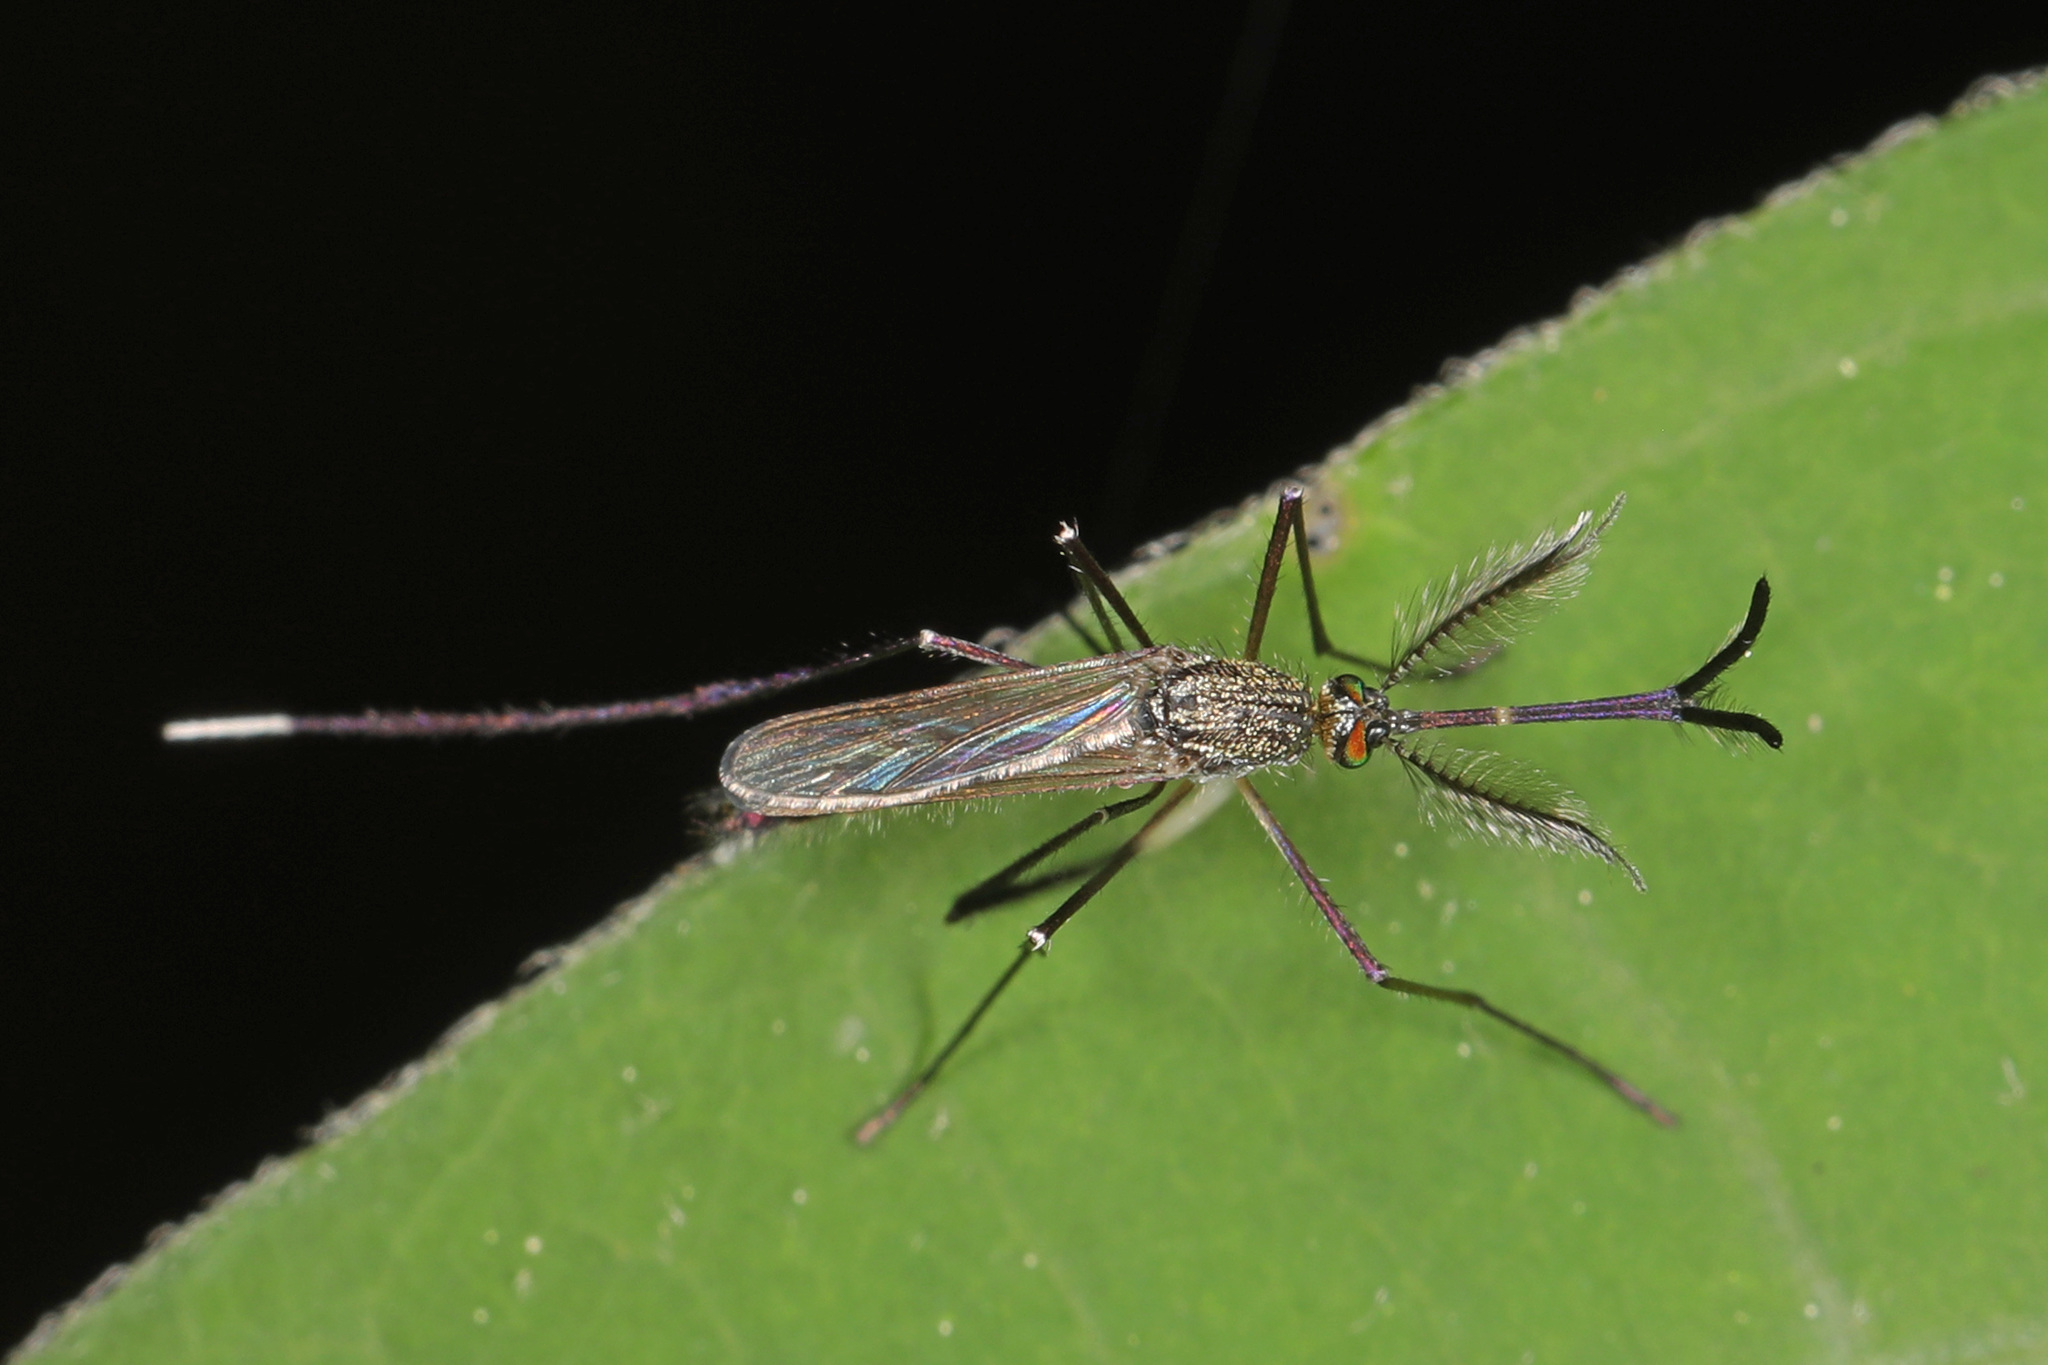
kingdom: Animalia
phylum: Arthropoda
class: Insecta
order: Diptera
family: Culicidae
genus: Psorophora
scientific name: Psorophora ferox
